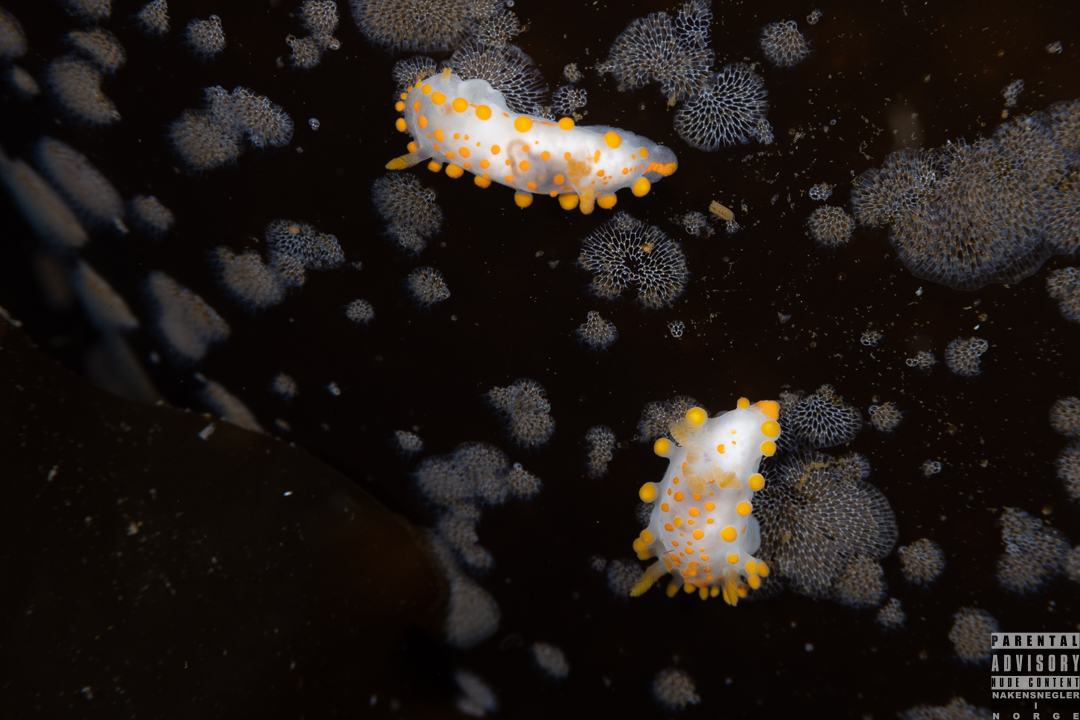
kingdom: Animalia
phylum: Mollusca
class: Gastropoda
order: Nudibranchia
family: Polyceridae
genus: Limacia
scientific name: Limacia clavigera
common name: Orange-clubbed sea slug
